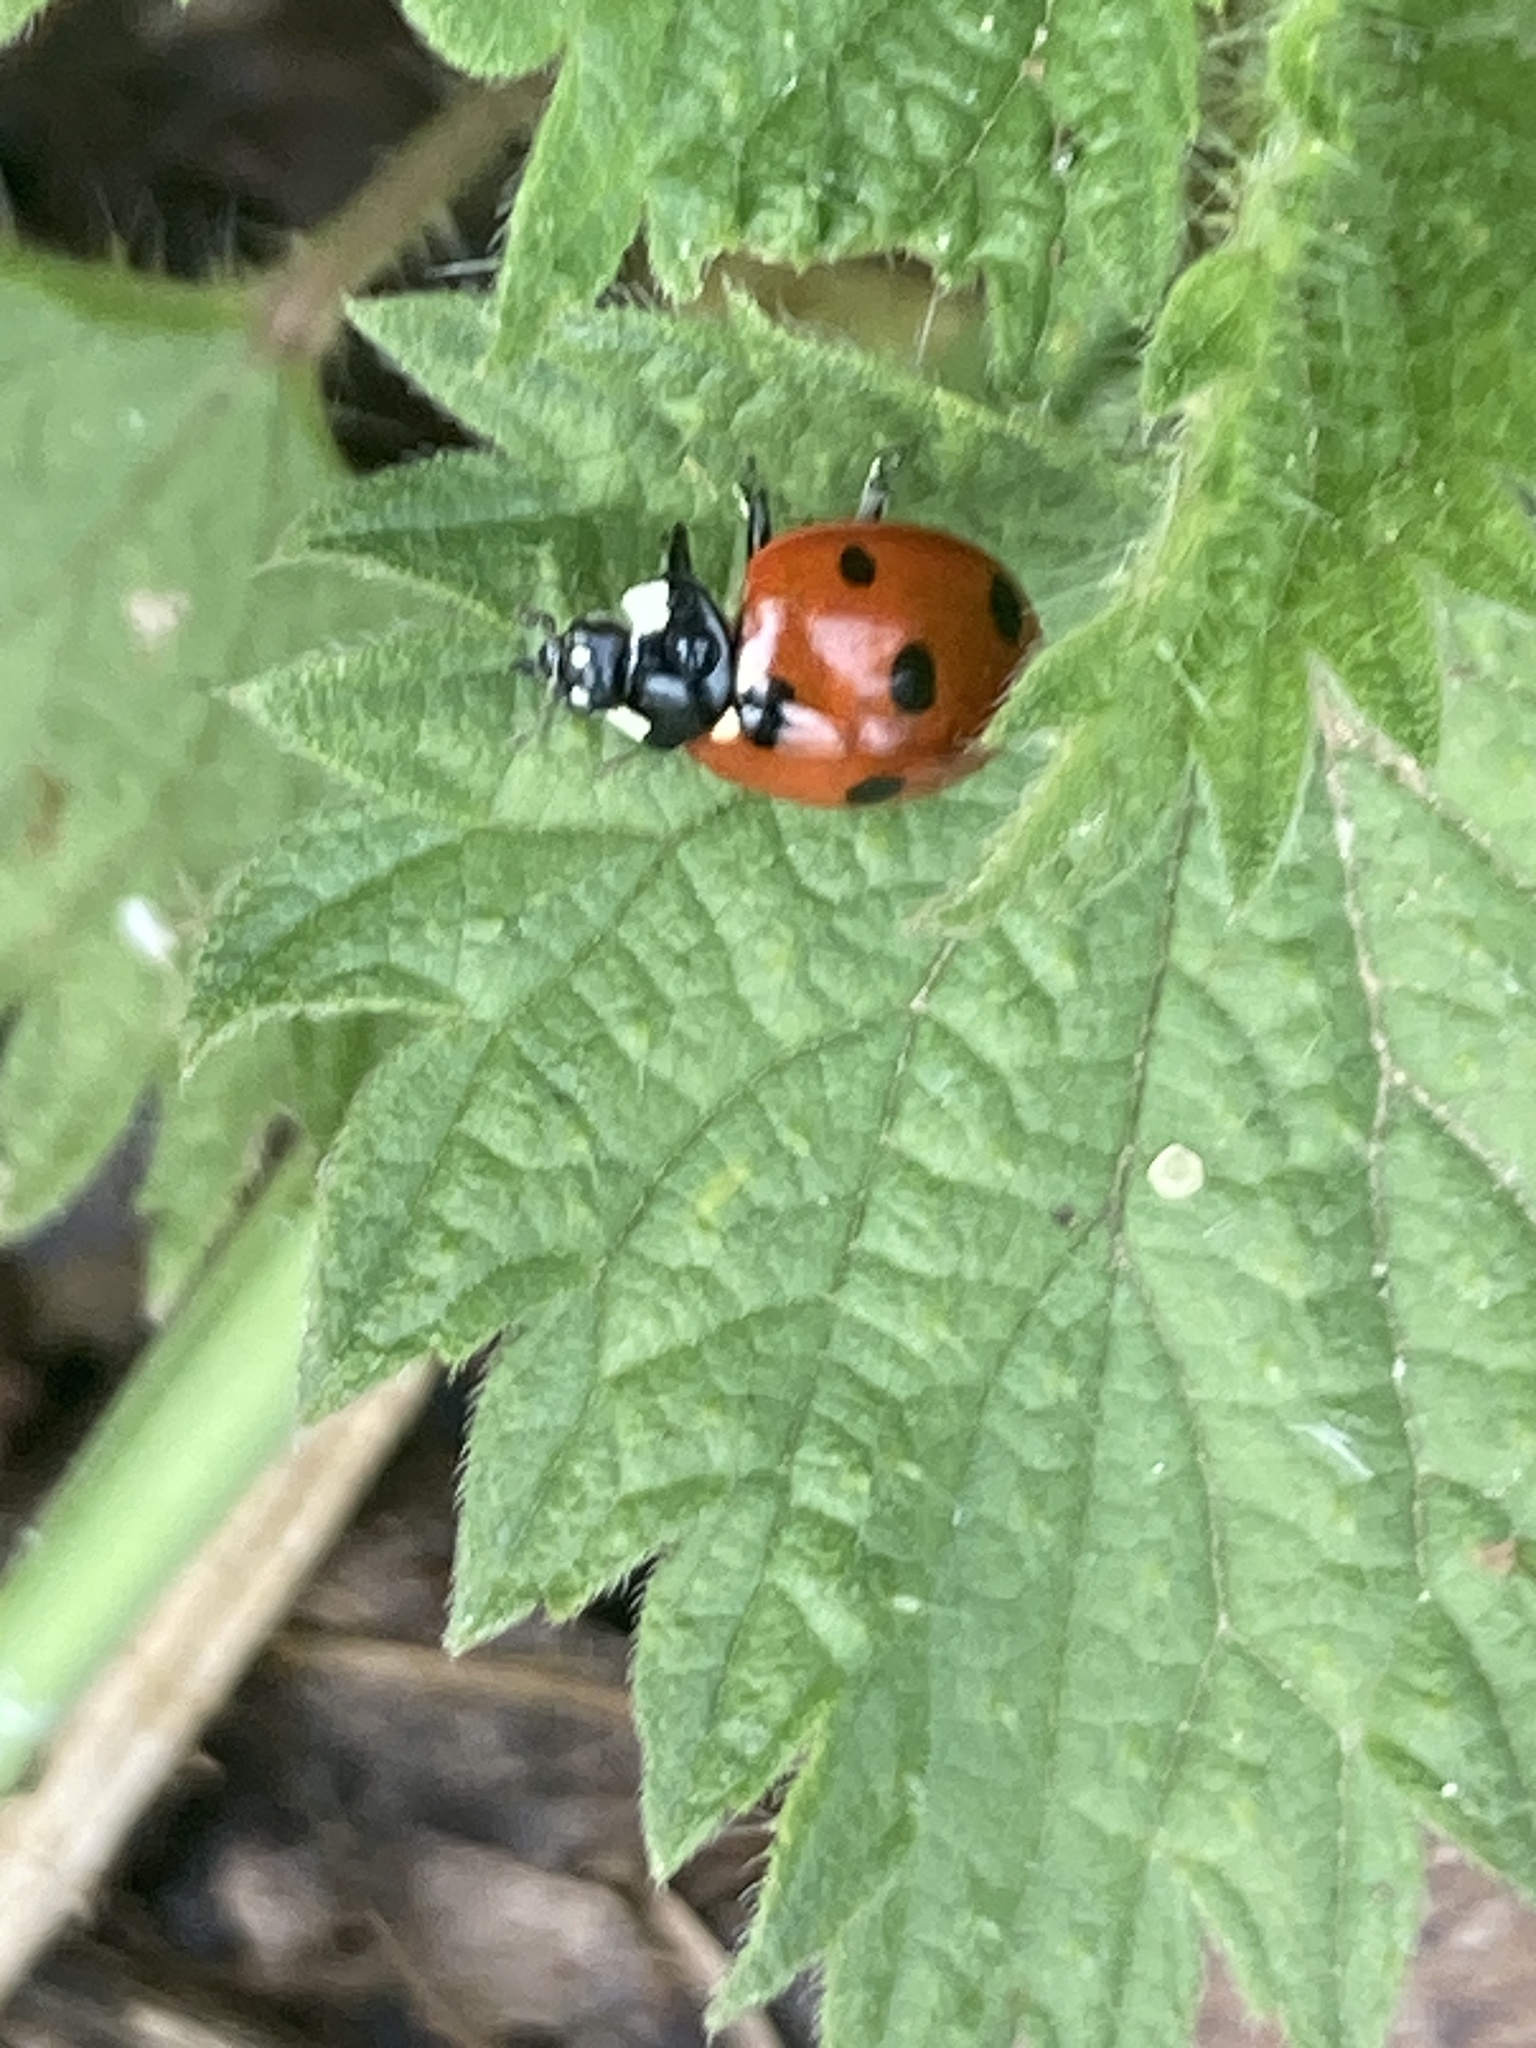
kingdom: Animalia
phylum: Arthropoda
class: Insecta
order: Coleoptera
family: Coccinellidae
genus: Coccinella
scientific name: Coccinella septempunctata
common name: Sevenspotted lady beetle
